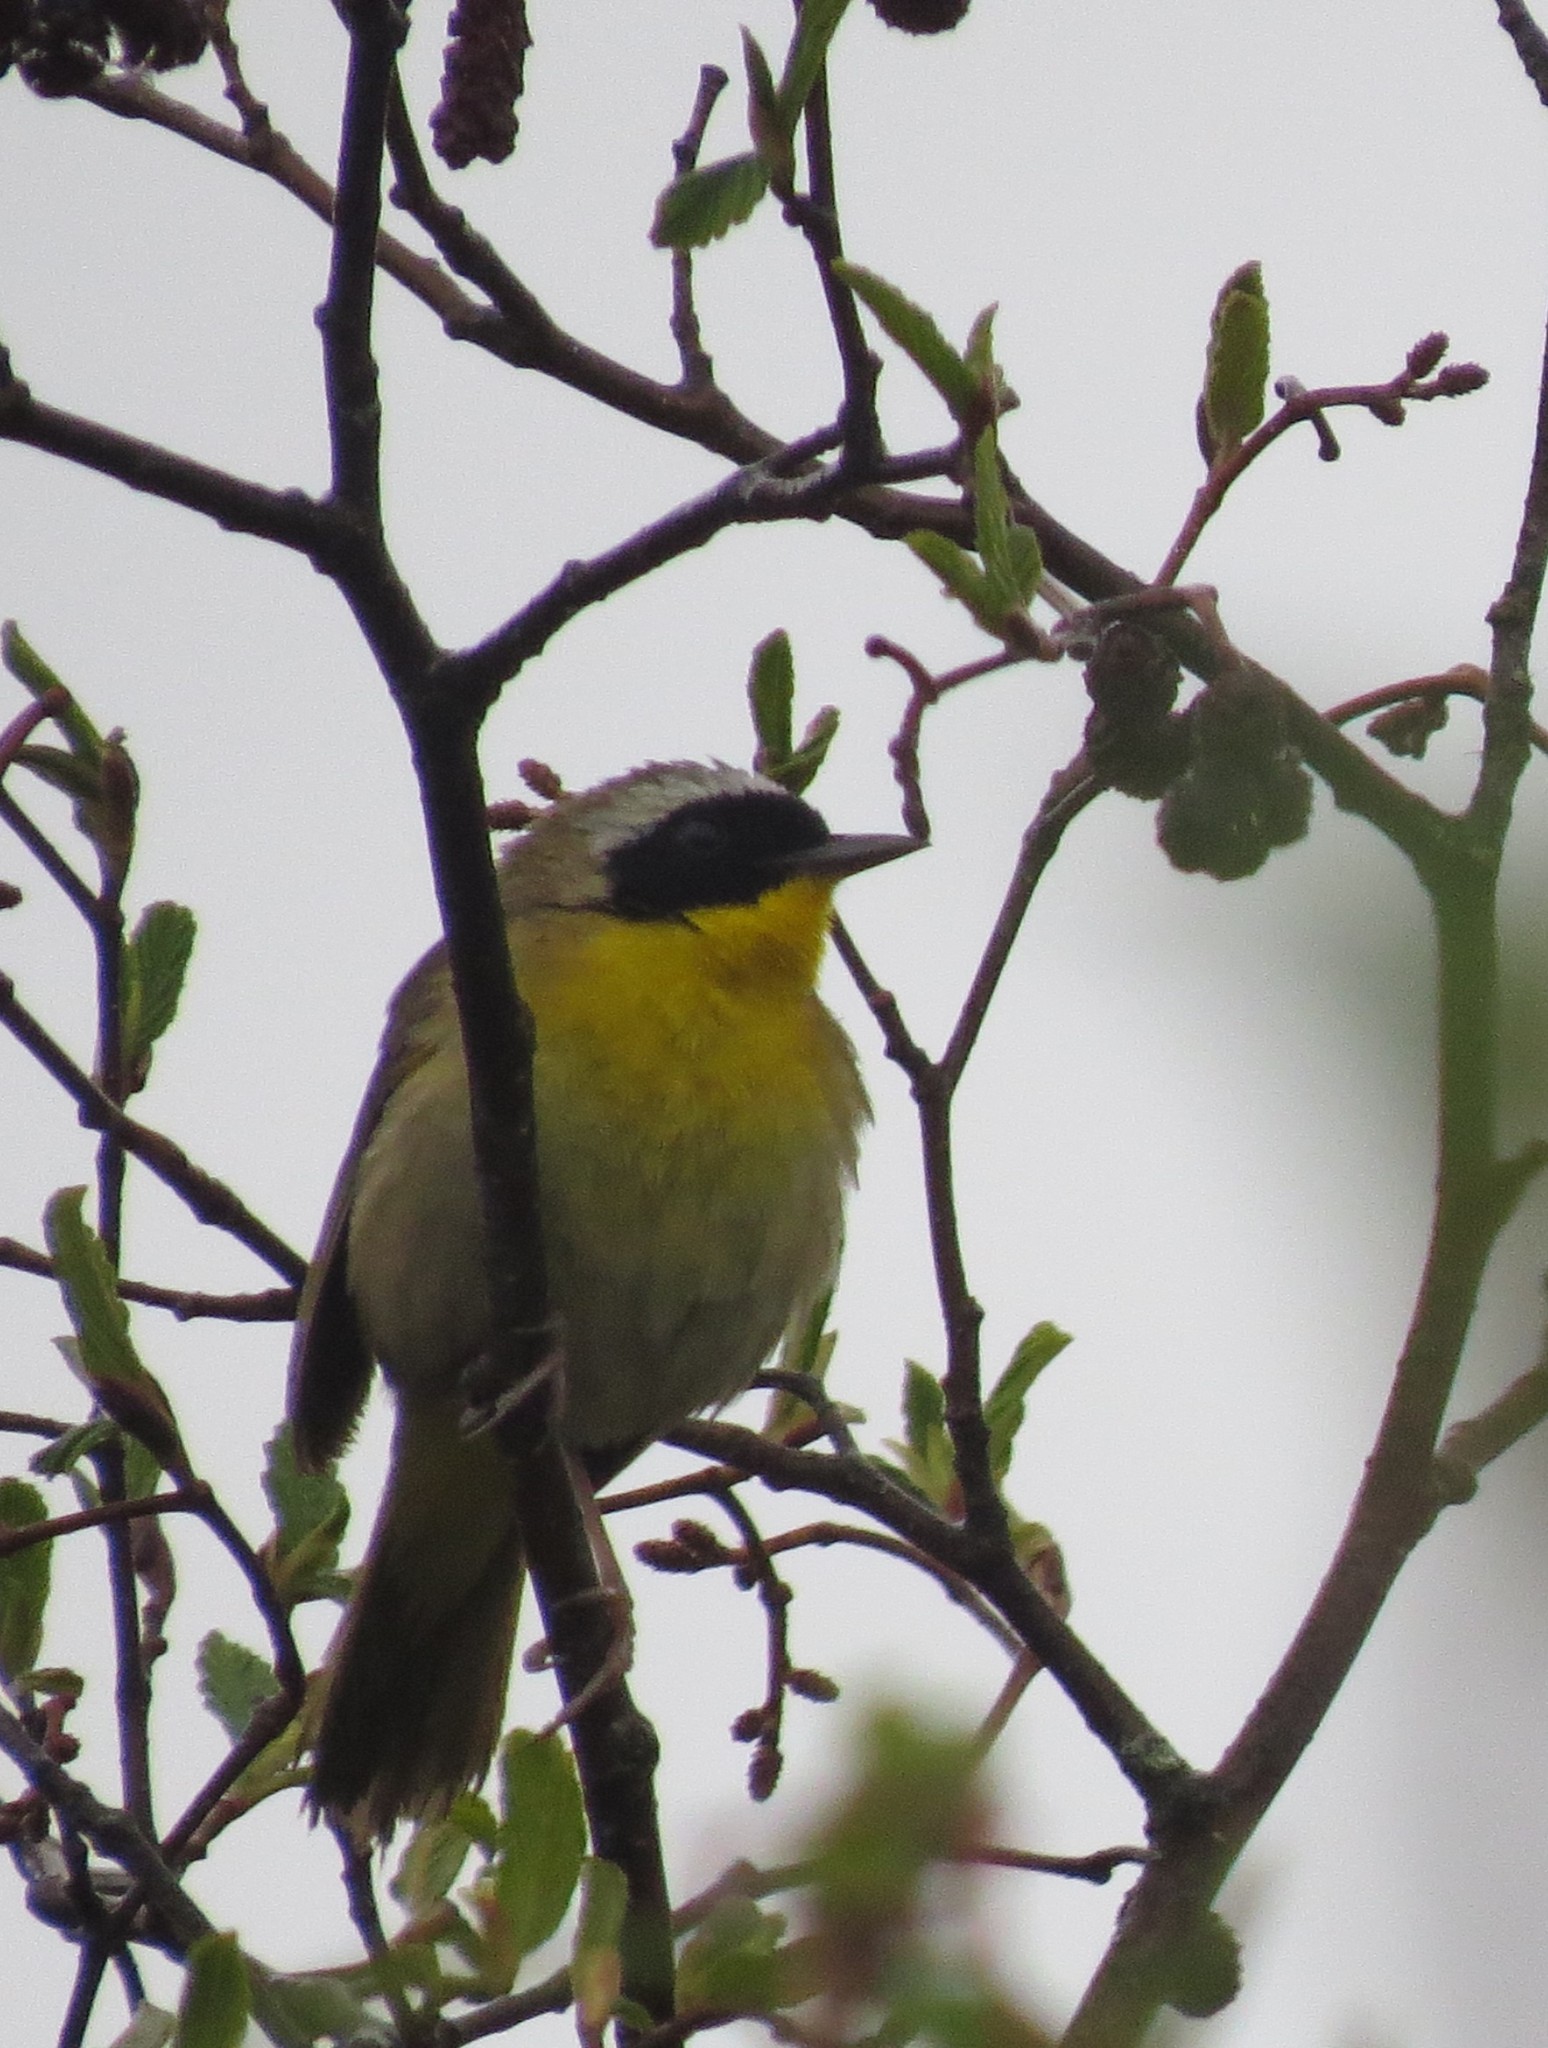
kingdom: Animalia
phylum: Chordata
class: Aves
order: Passeriformes
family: Parulidae
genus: Geothlypis
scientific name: Geothlypis trichas
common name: Common yellowthroat
